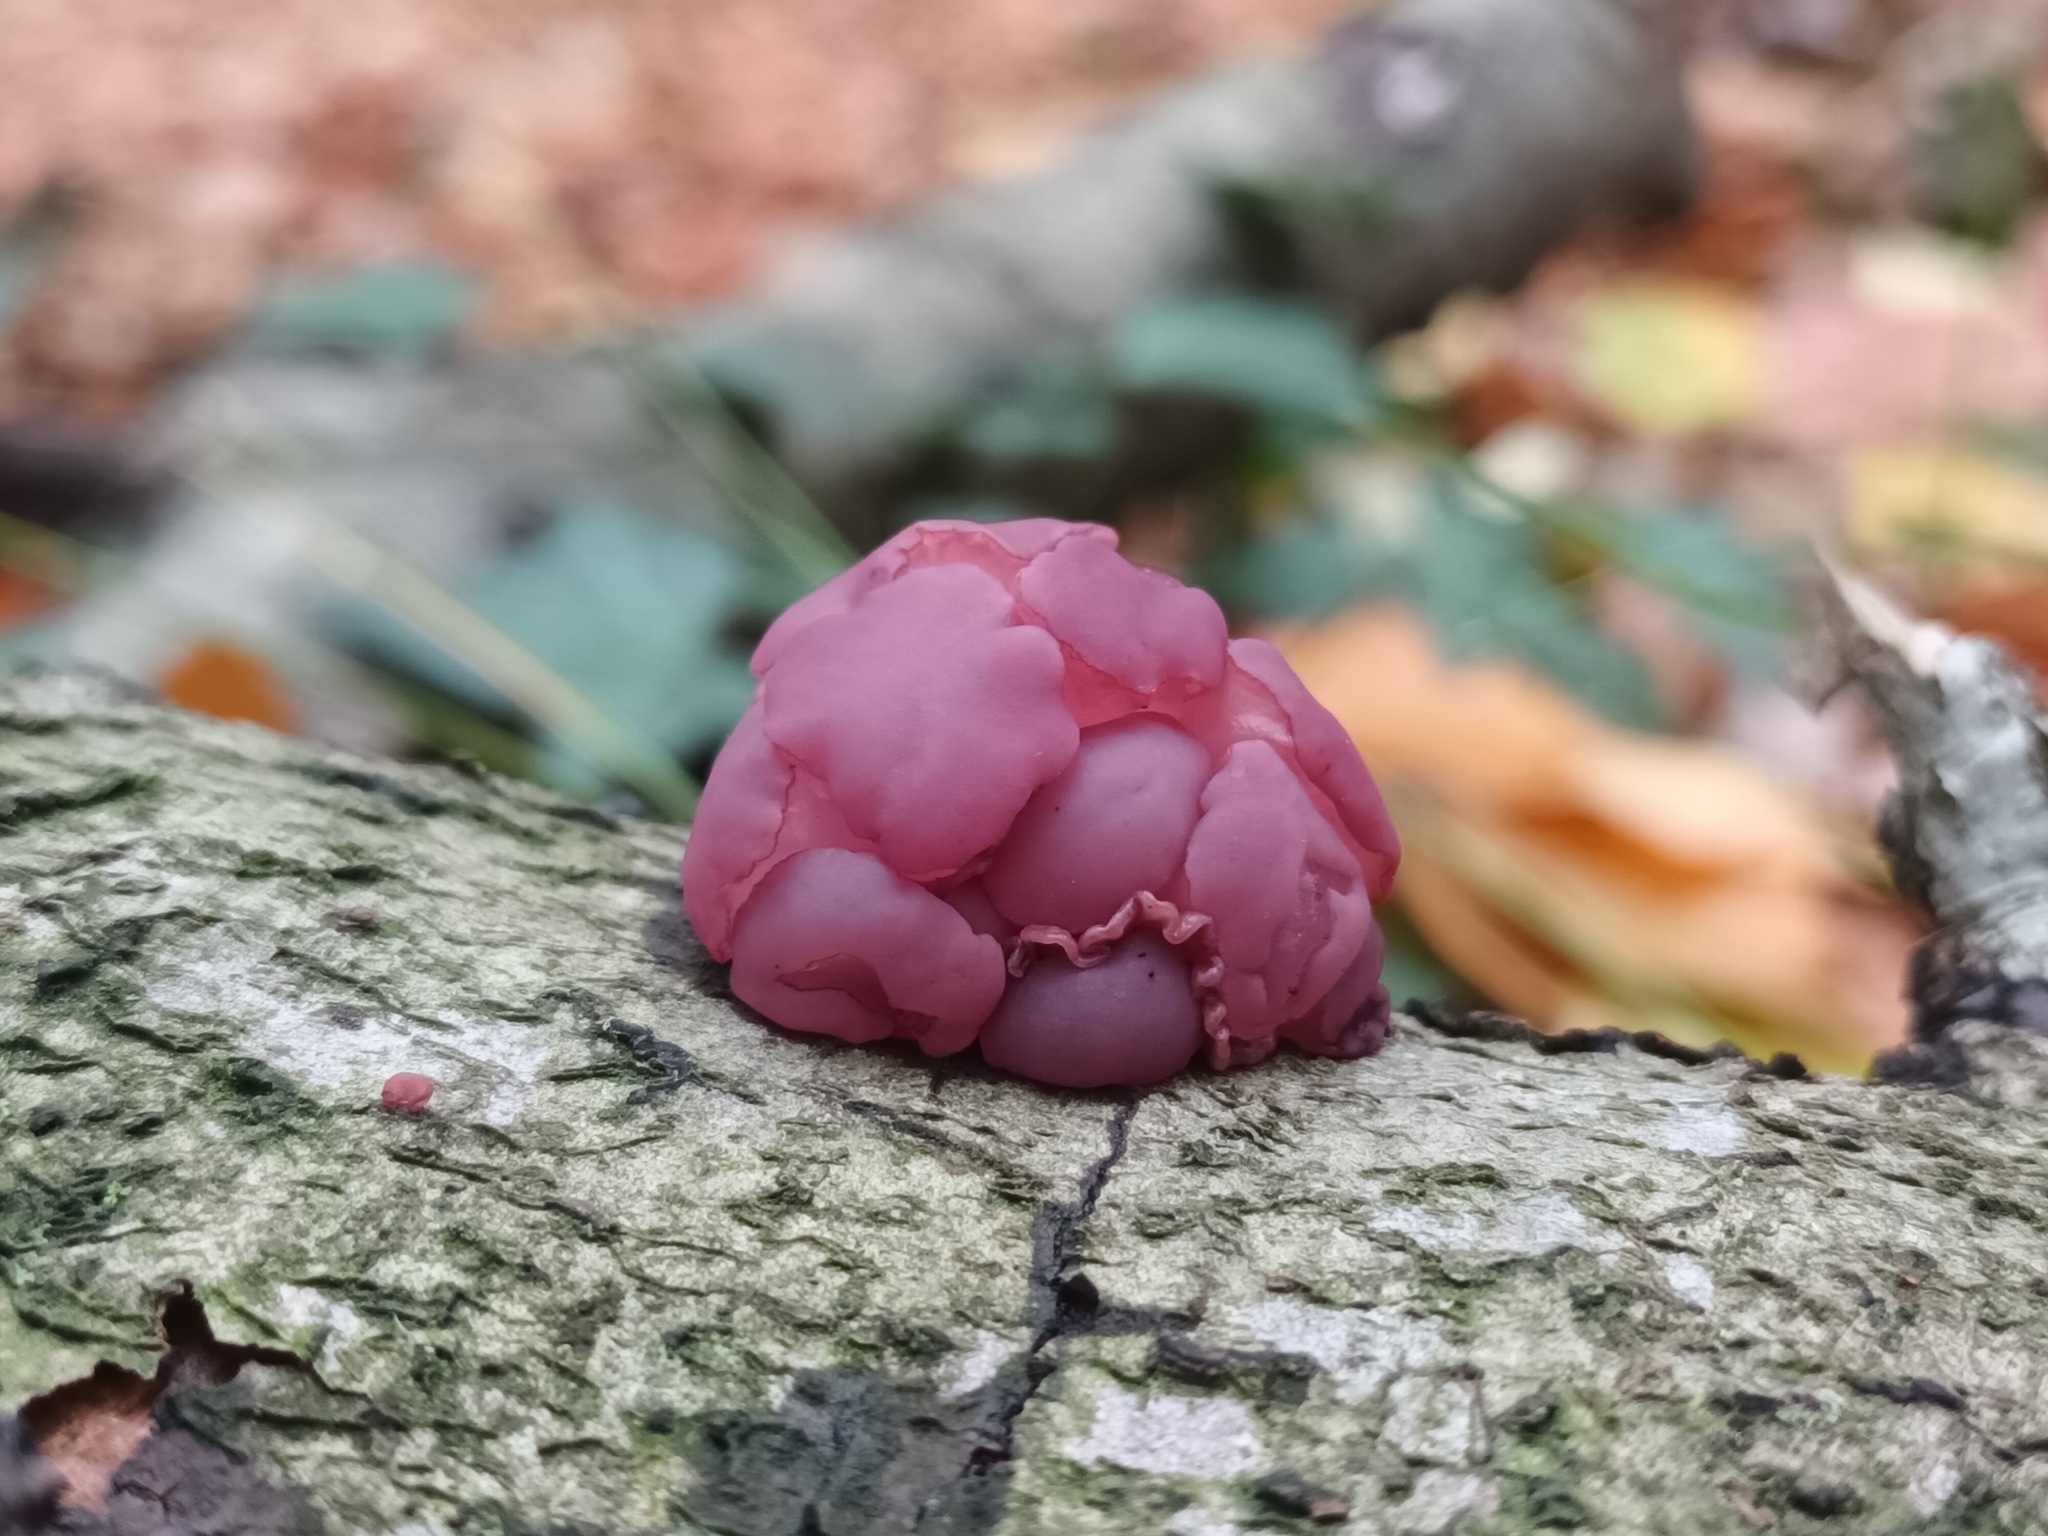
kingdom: Fungi
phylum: Ascomycota
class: Leotiomycetes
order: Helotiales
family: Gelatinodiscaceae
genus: Ascocoryne
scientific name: Ascocoryne sarcoides
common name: Purple jellydisc
